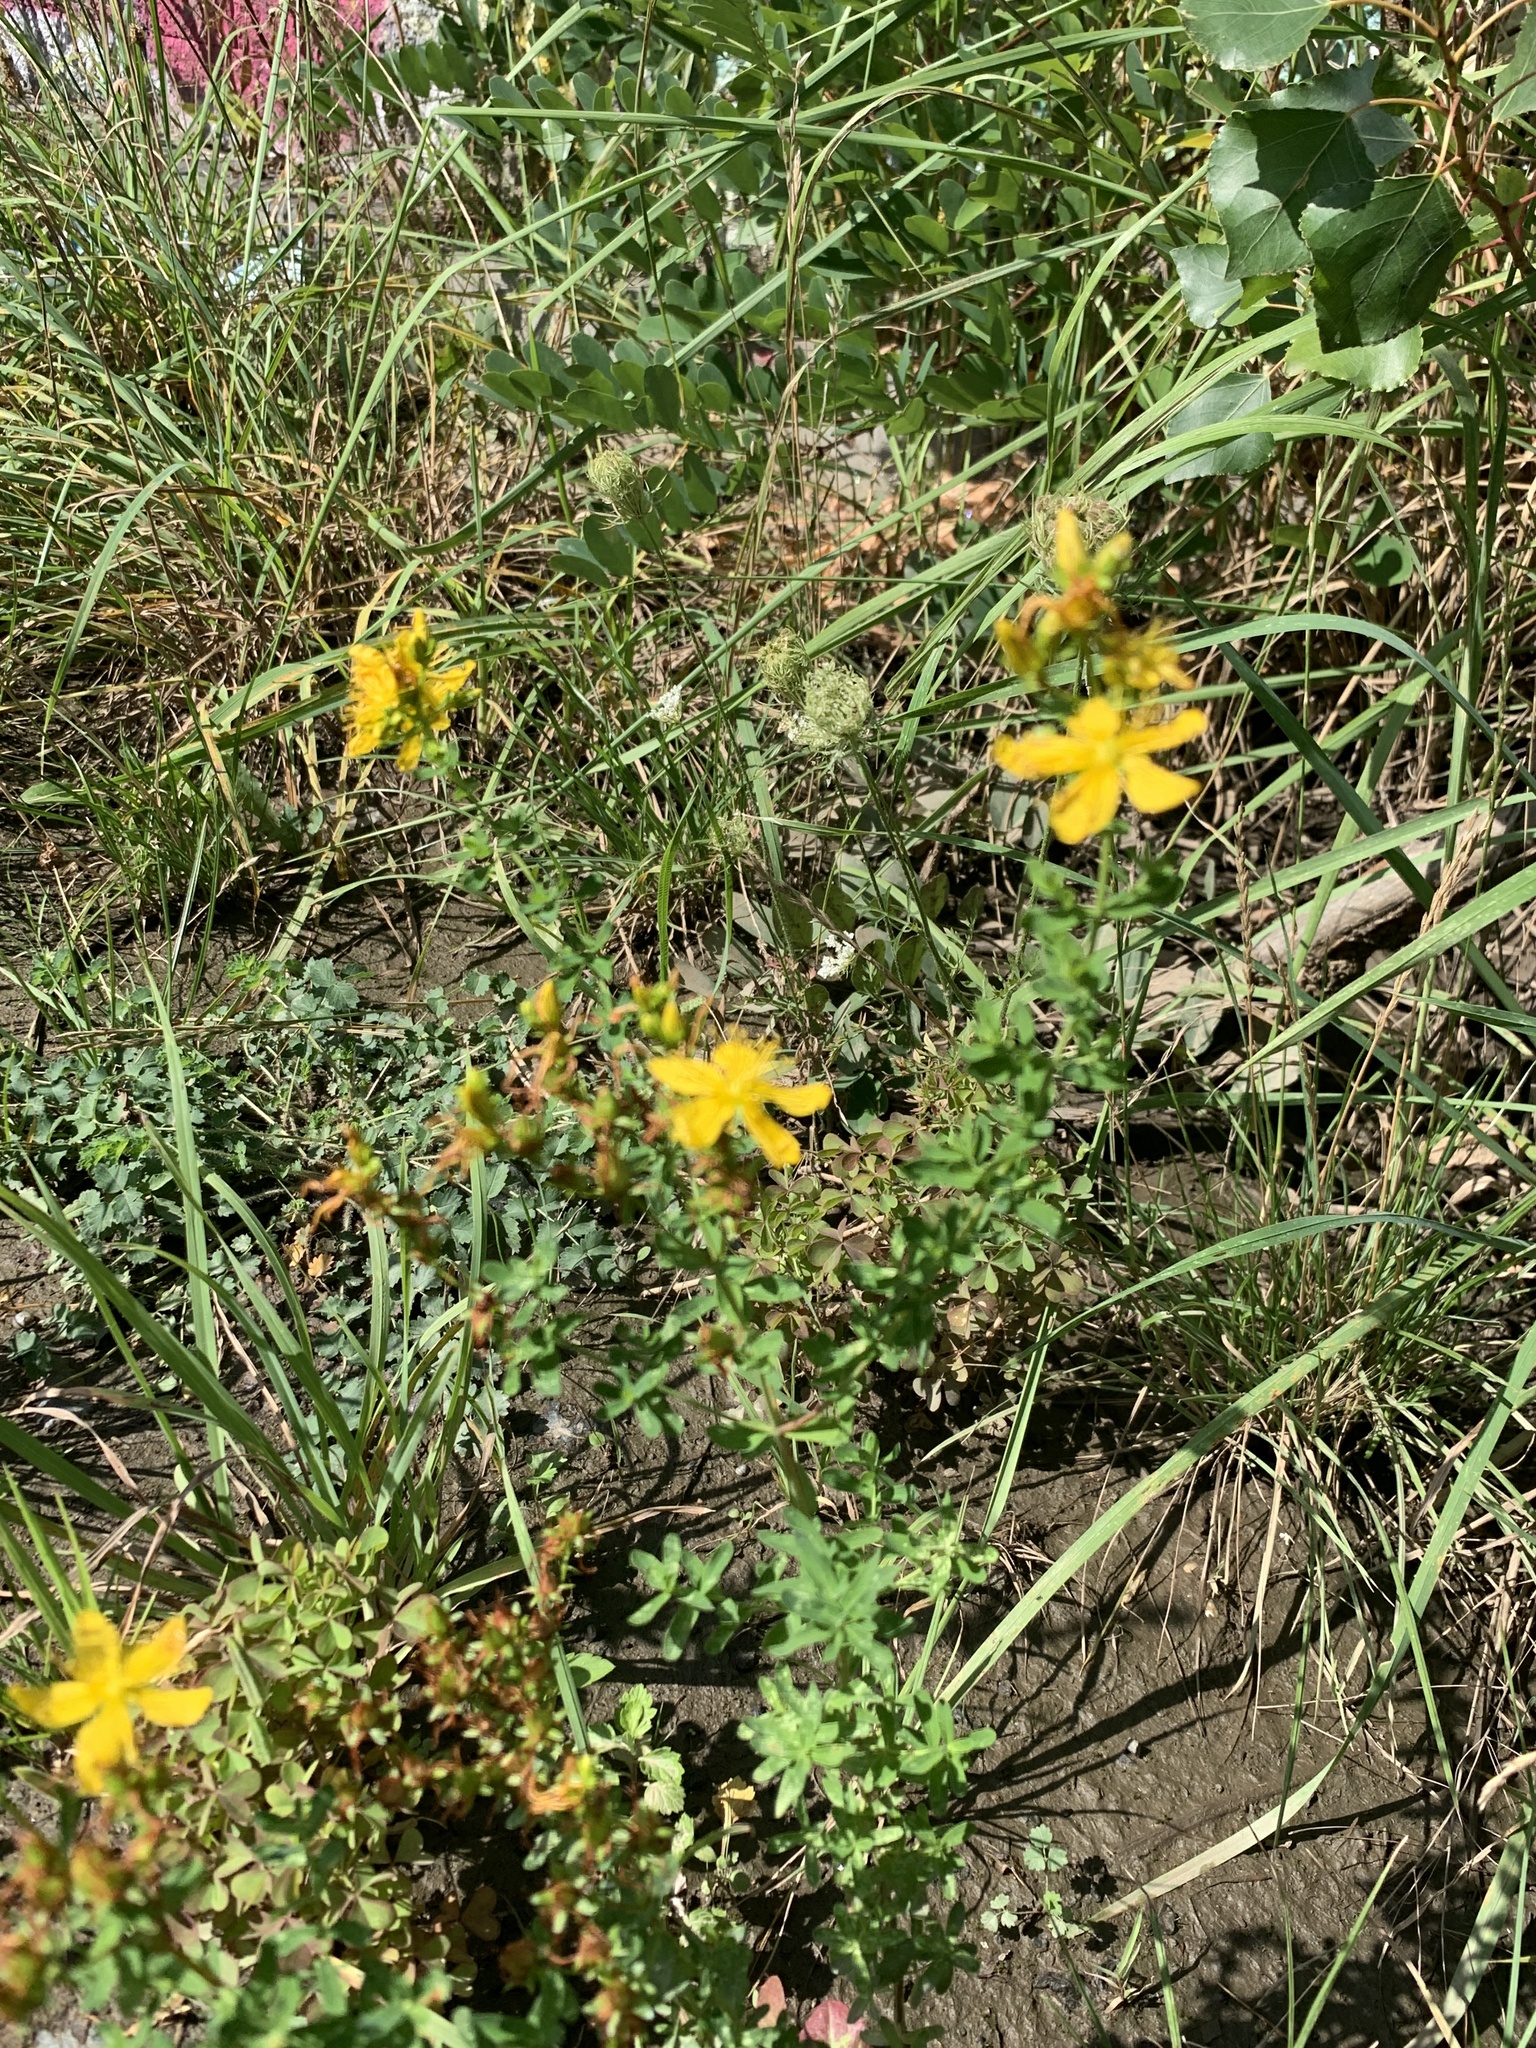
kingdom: Plantae
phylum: Tracheophyta
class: Magnoliopsida
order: Malpighiales
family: Hypericaceae
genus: Hypericum
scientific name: Hypericum perforatum
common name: Common st. johnswort
